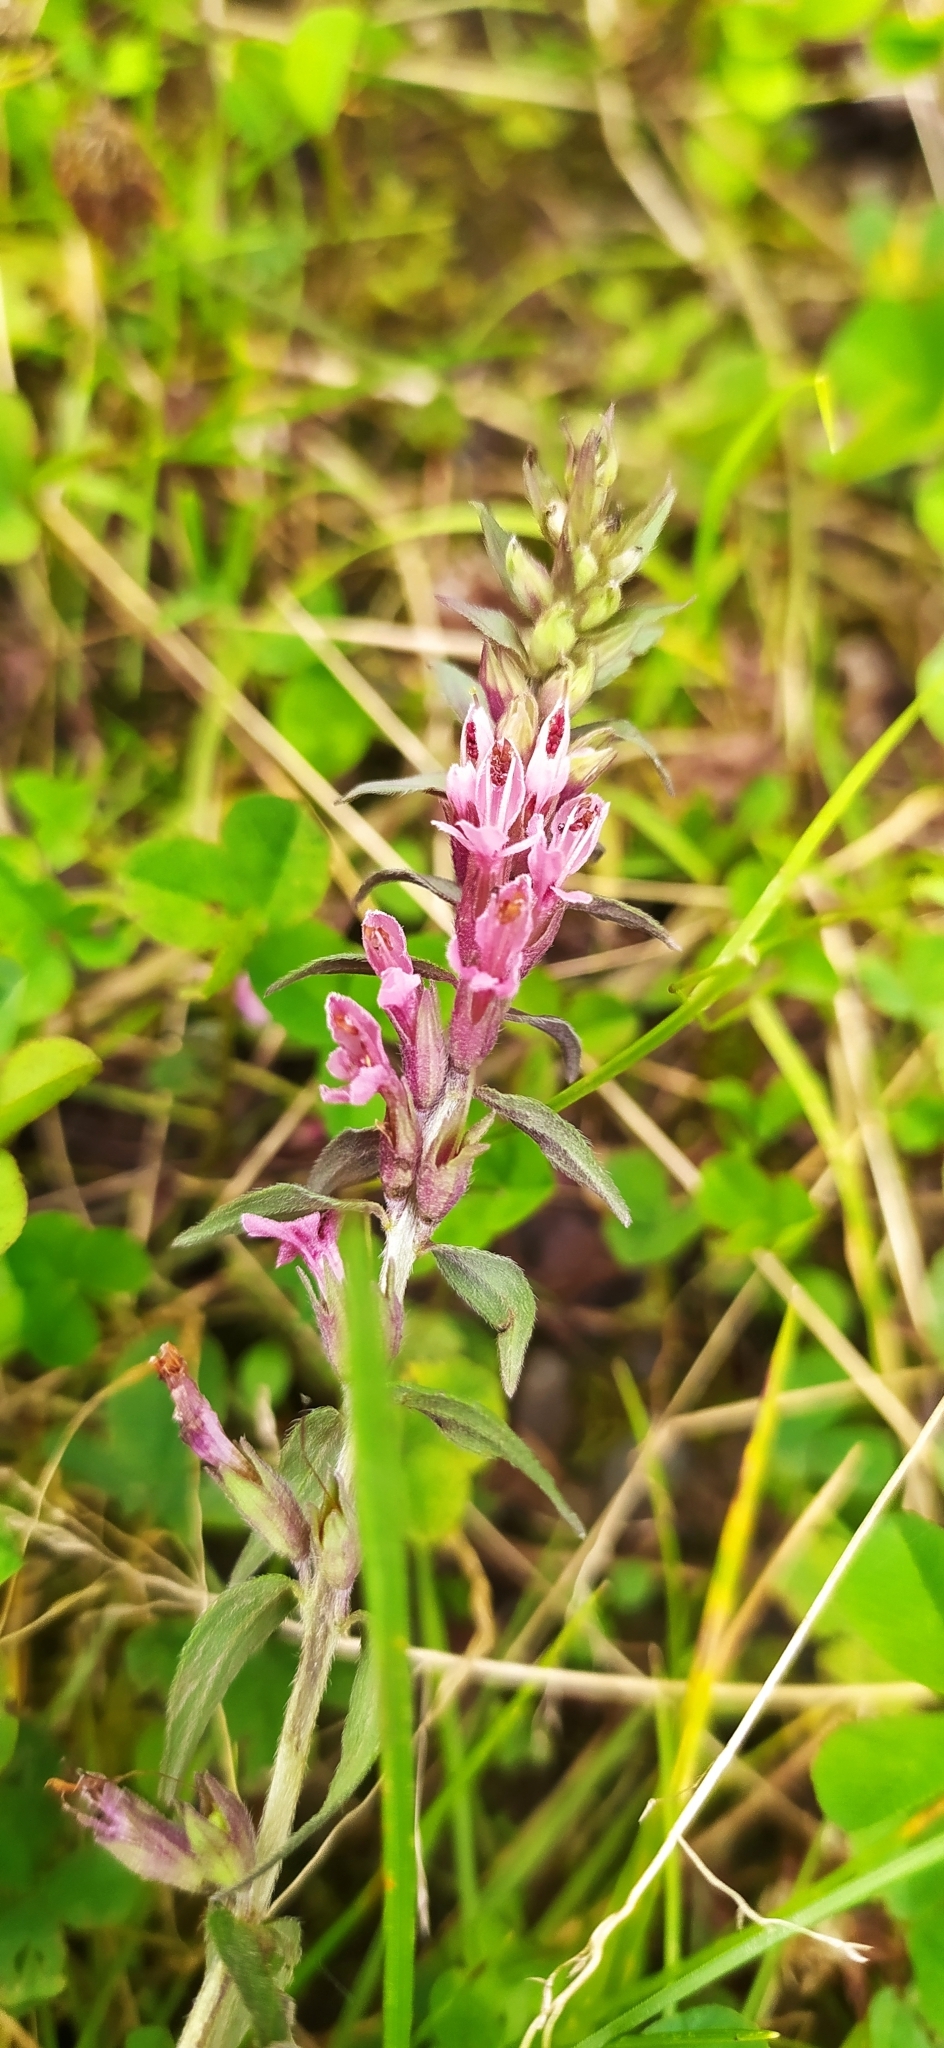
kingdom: Plantae
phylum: Tracheophyta
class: Magnoliopsida
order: Lamiales
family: Orobanchaceae
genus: Odontites
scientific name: Odontites vulgaris
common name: Broomrape
